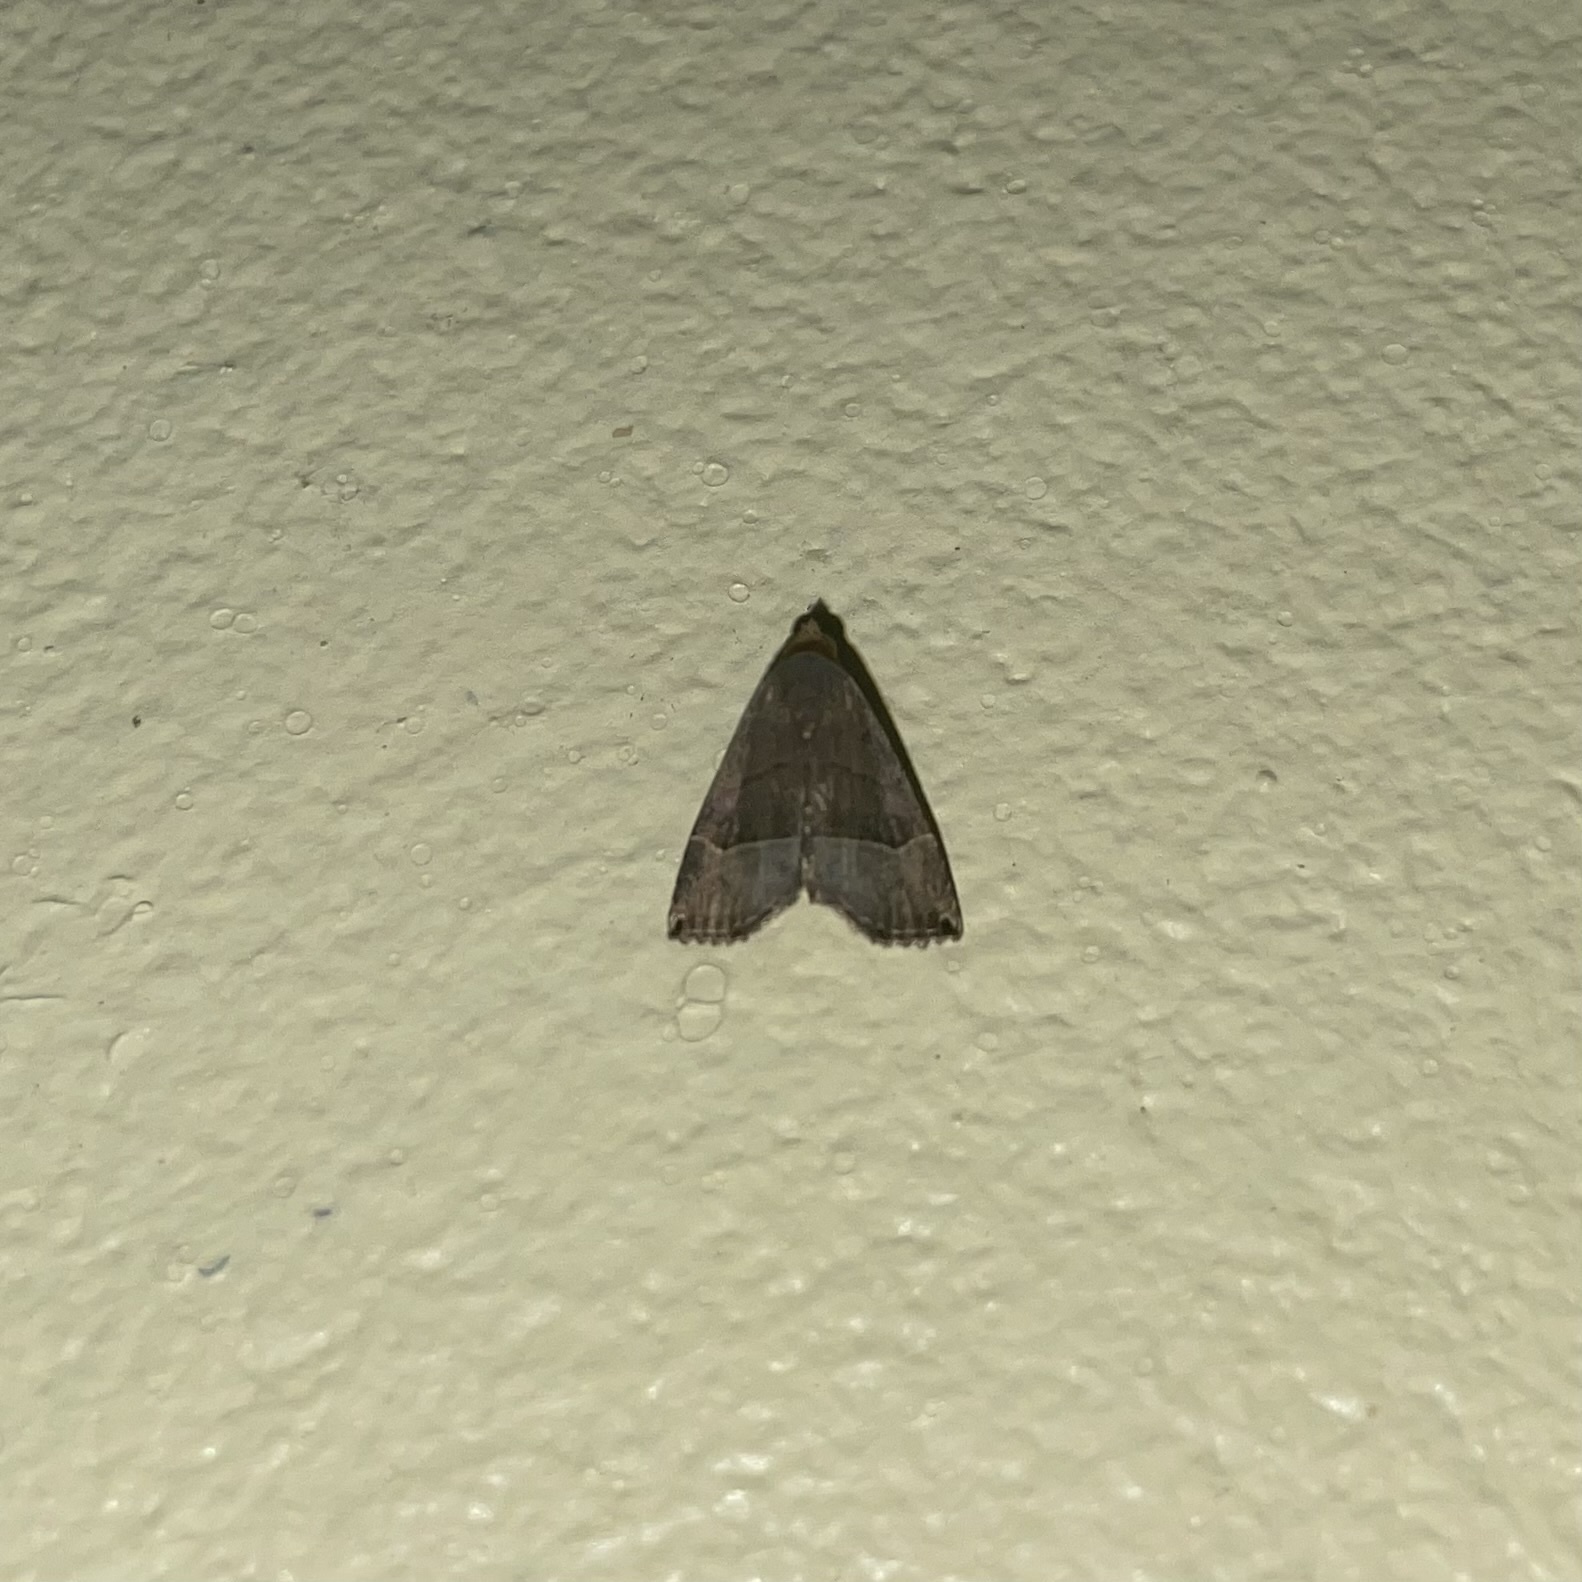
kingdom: Animalia
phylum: Arthropoda
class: Insecta
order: Lepidoptera
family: Noctuidae
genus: Abacena
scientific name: Abacena mundula
